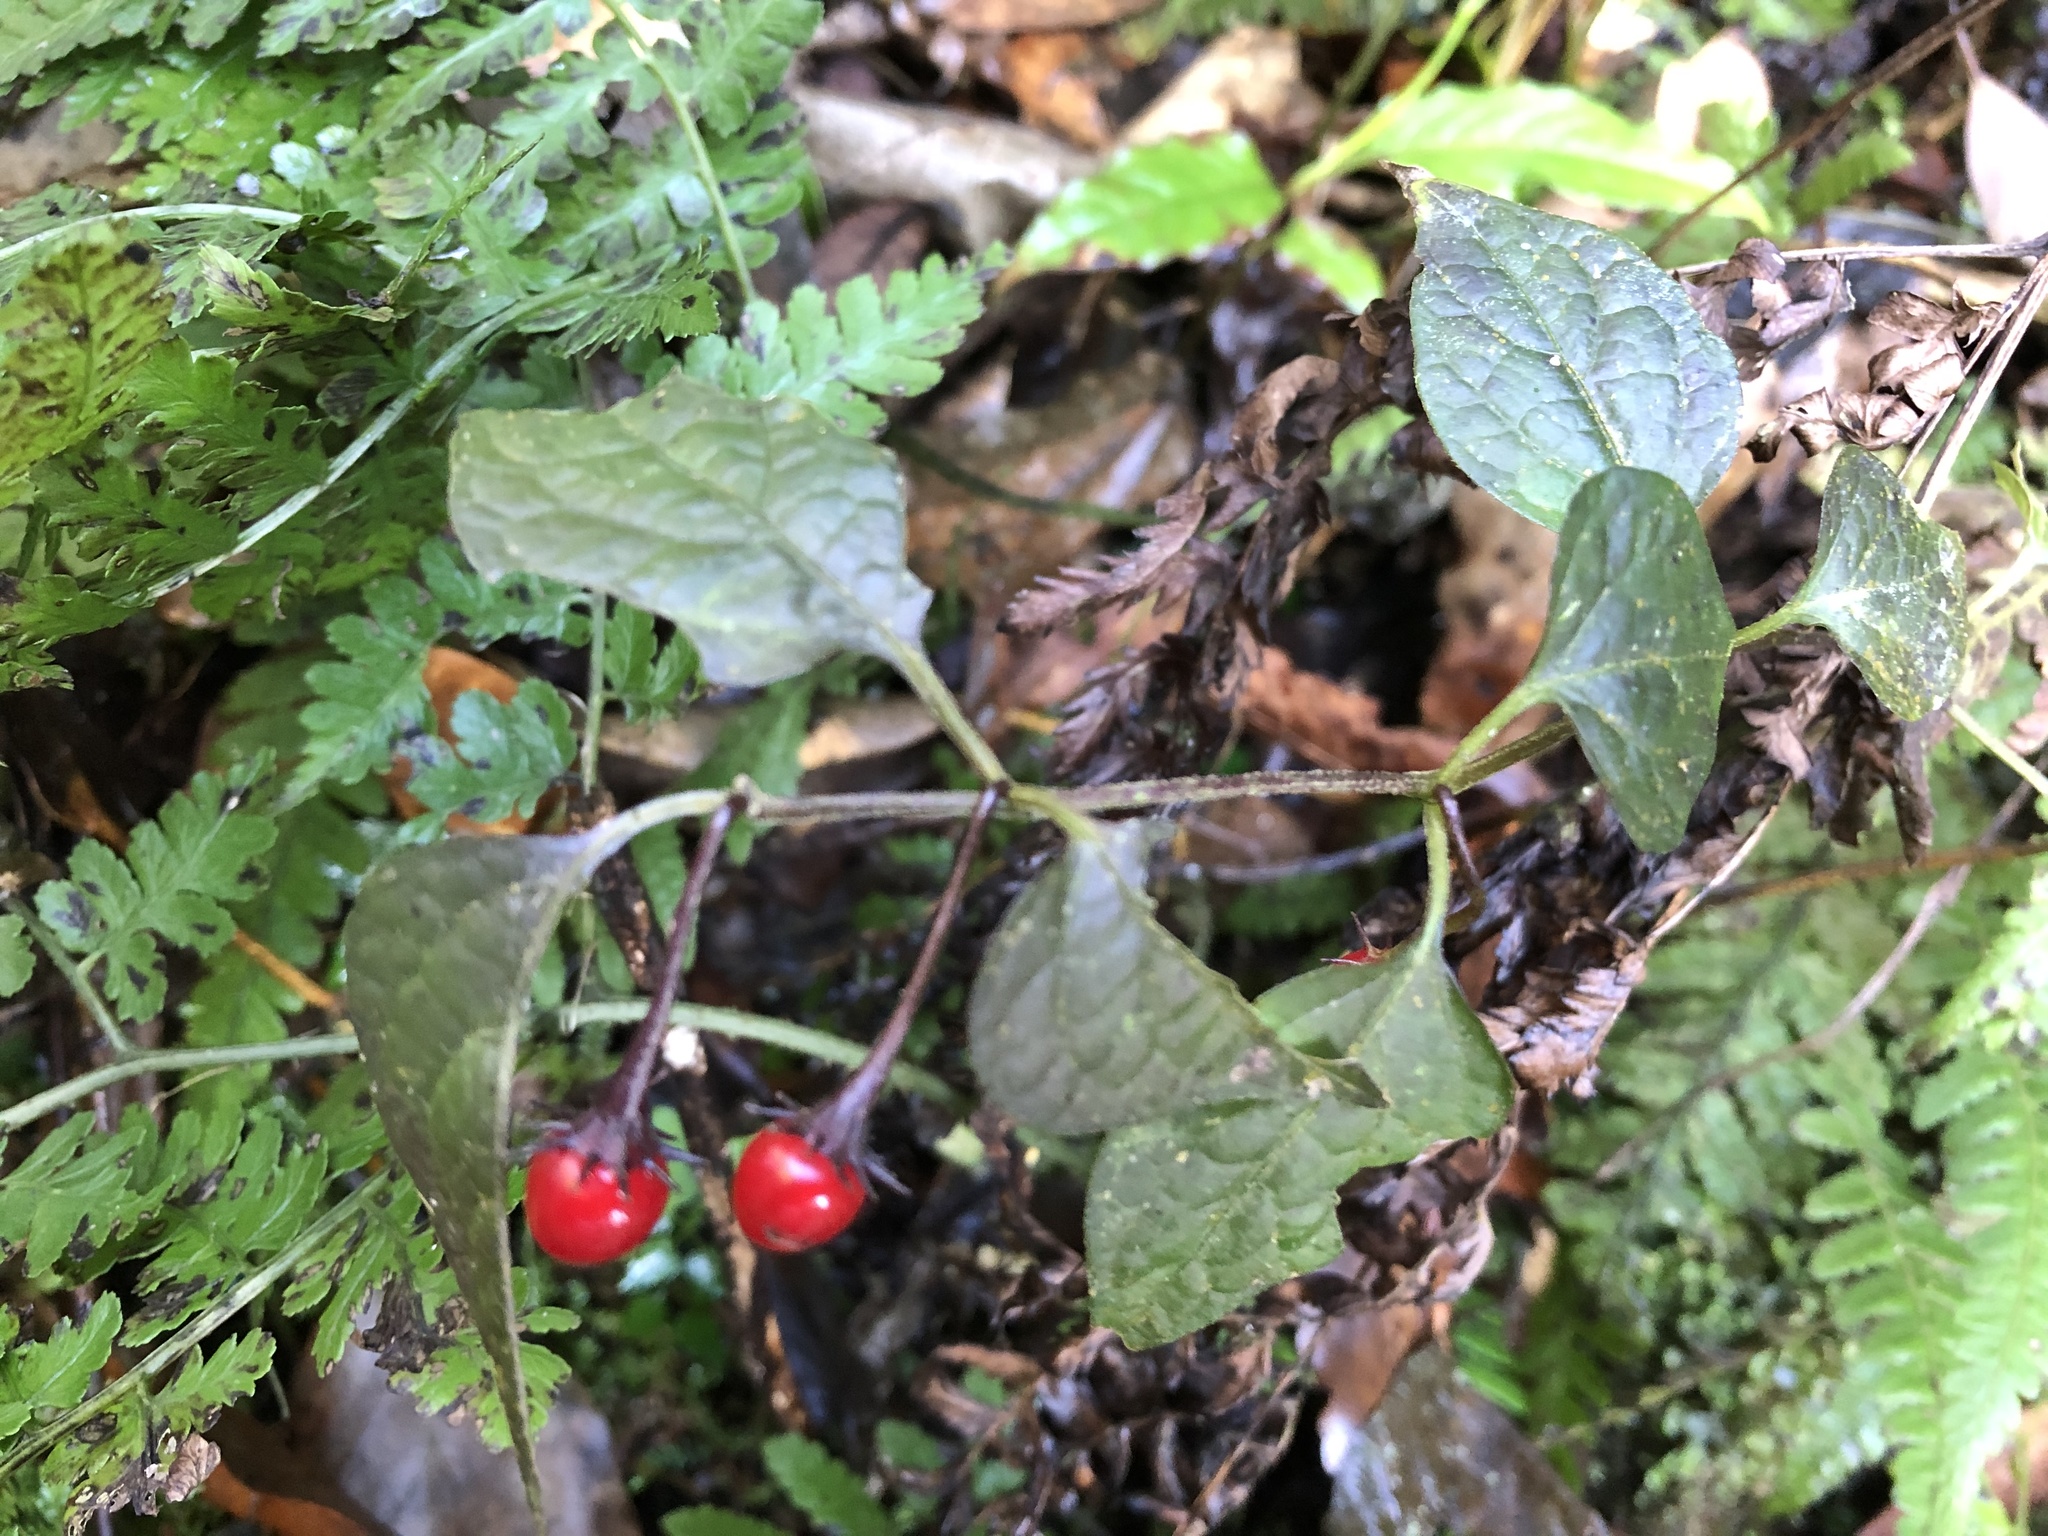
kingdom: Plantae
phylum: Tracheophyta
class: Magnoliopsida
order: Solanales
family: Solanaceae
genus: Lycianthes
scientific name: Lycianthes lysimachioides
